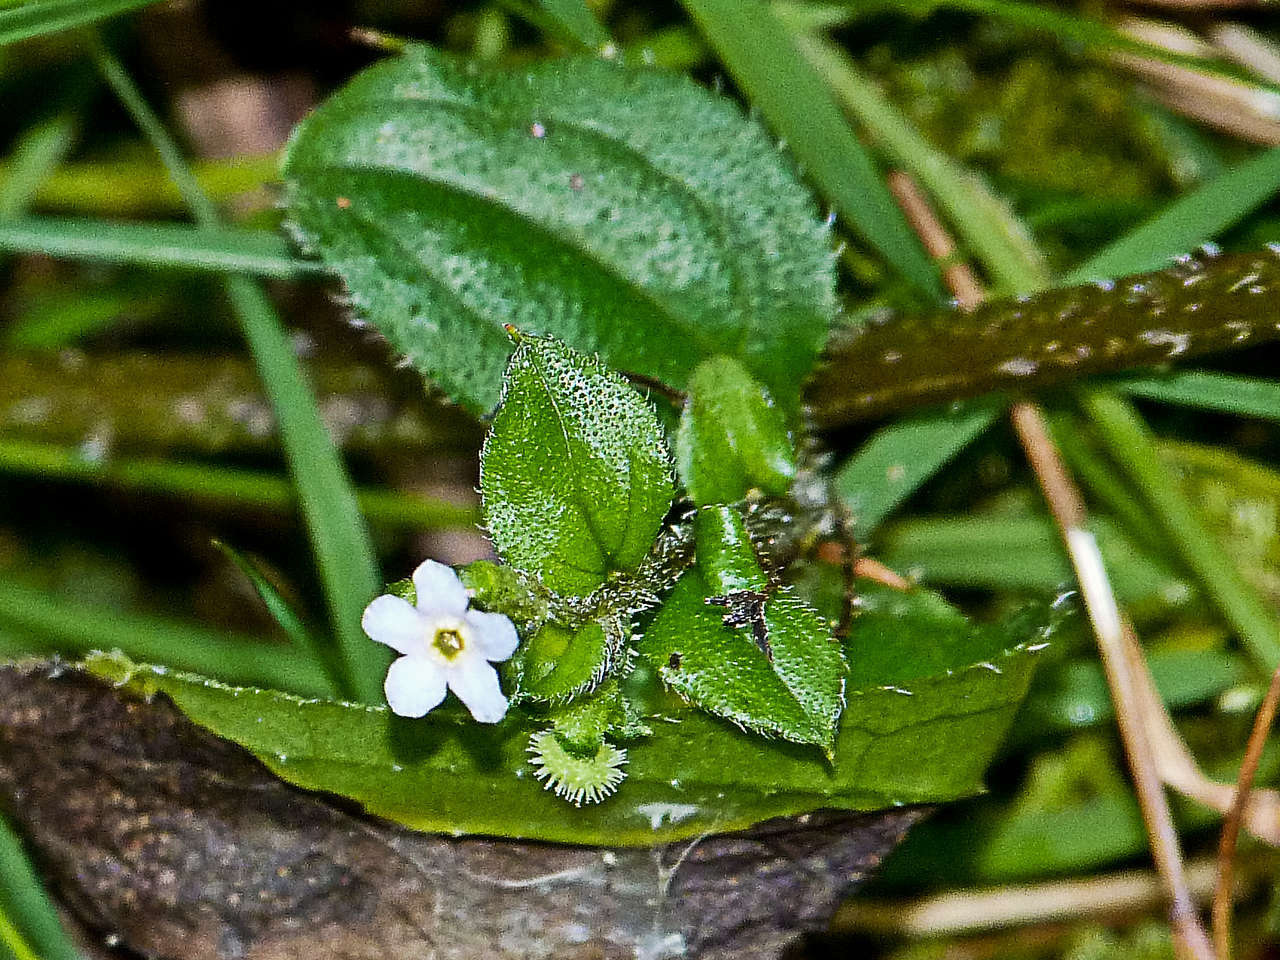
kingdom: Plantae
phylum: Tracheophyta
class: Magnoliopsida
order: Boraginales
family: Boraginaceae
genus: Hackelia
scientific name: Hackelia latifolia
